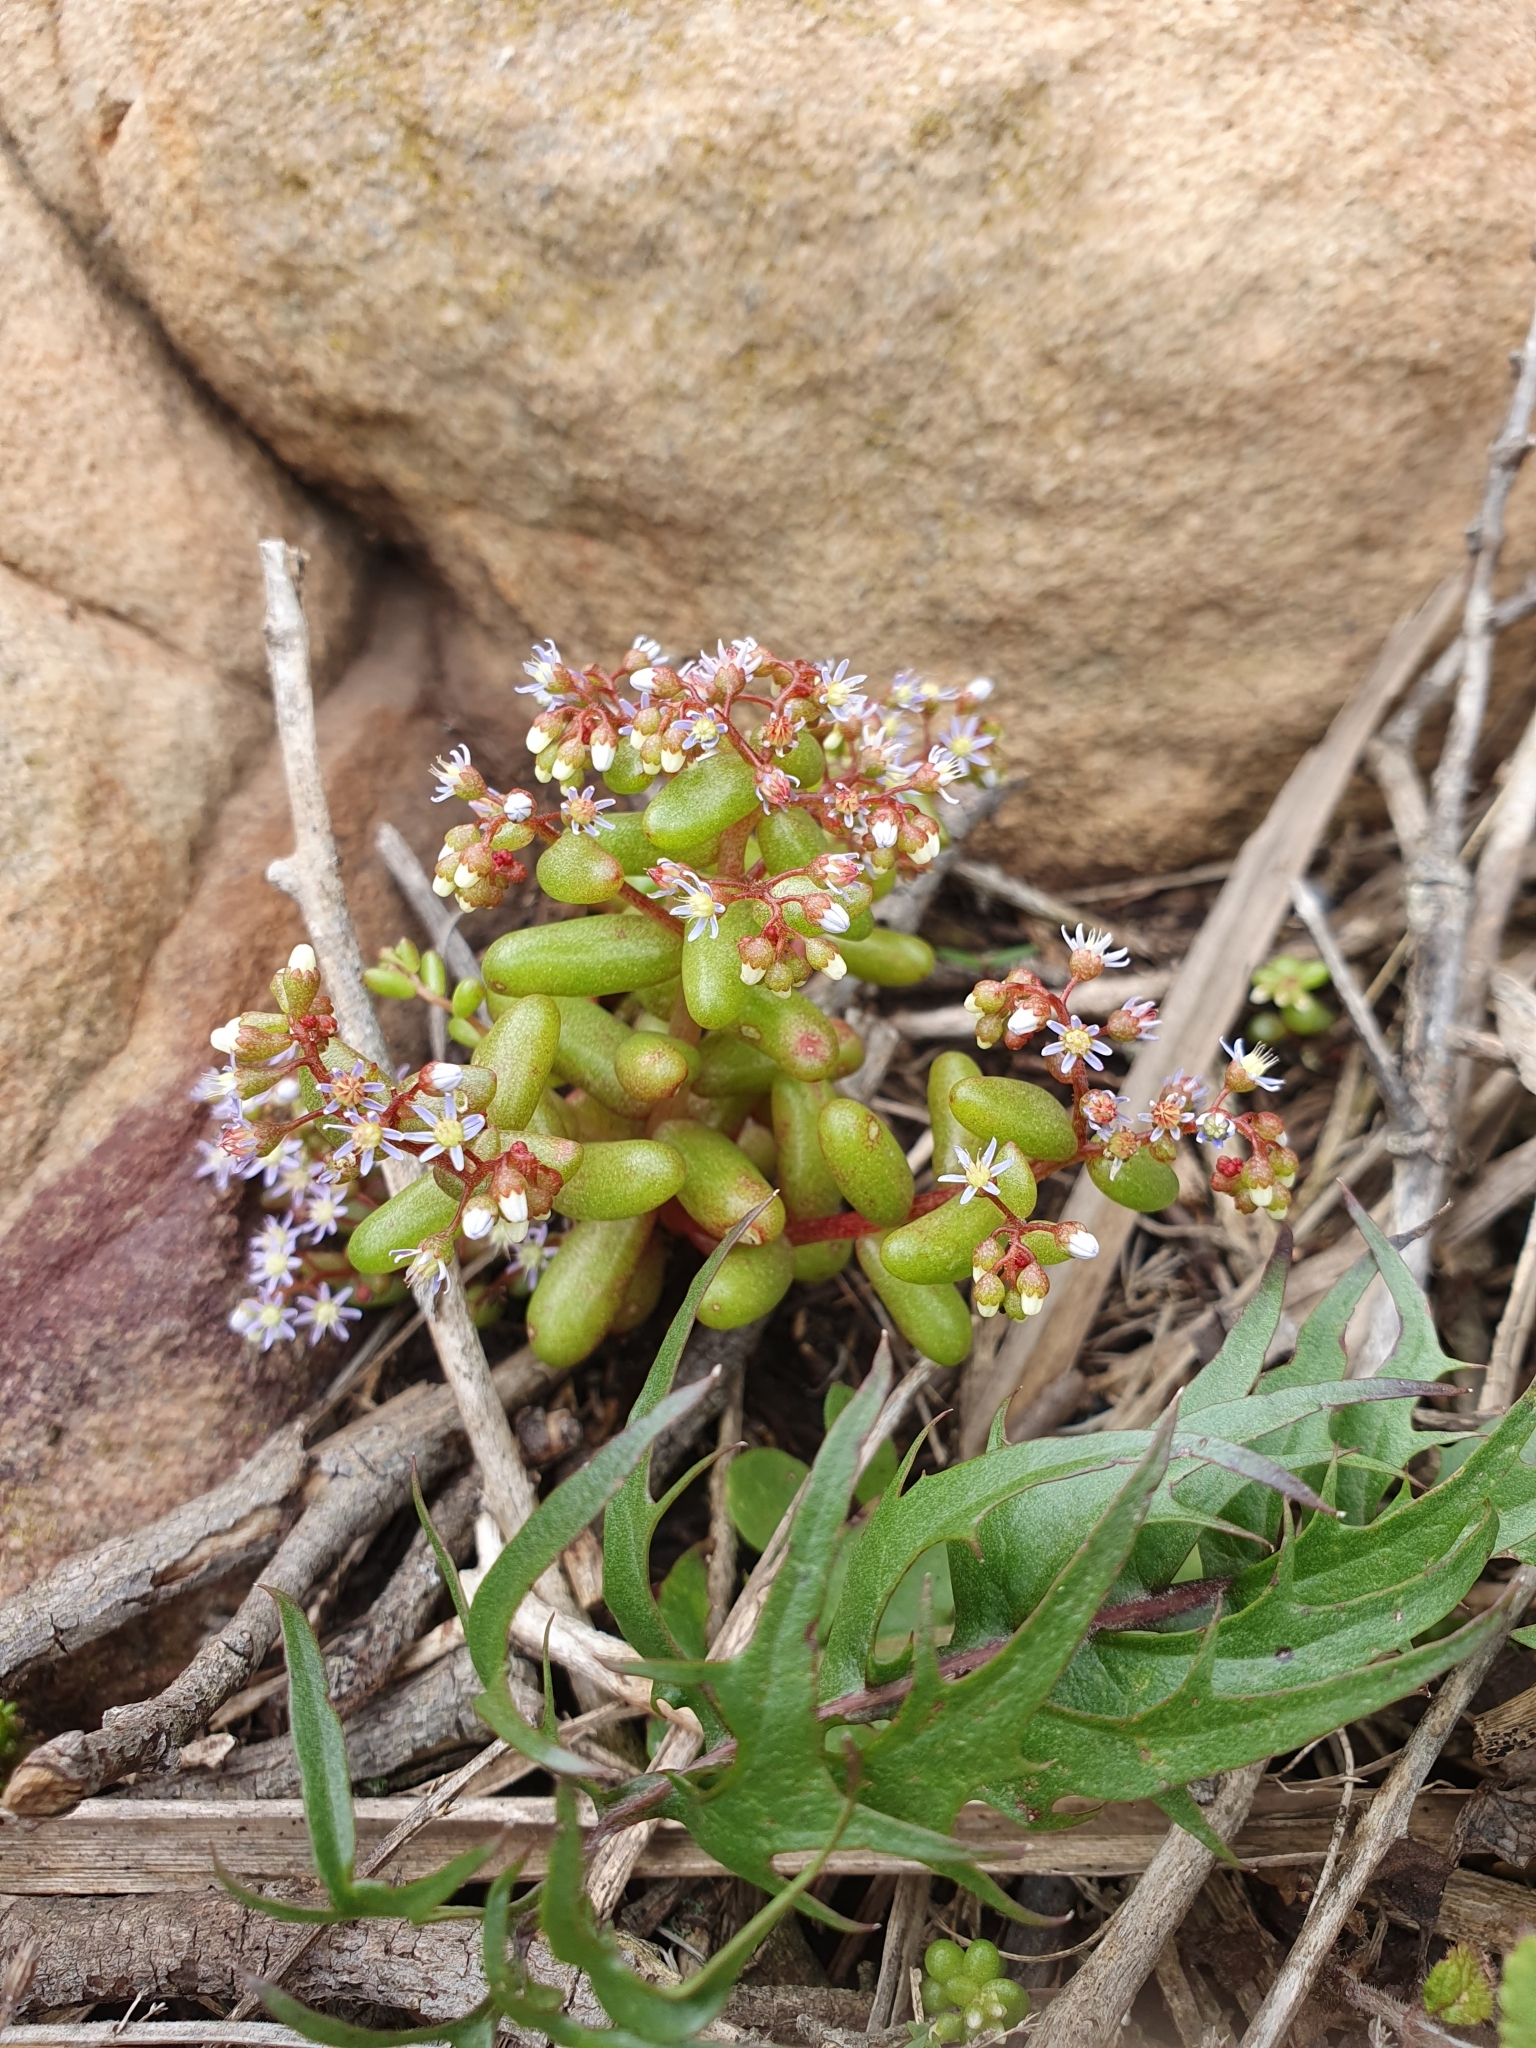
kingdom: Plantae
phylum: Tracheophyta
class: Magnoliopsida
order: Saxifragales
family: Crassulaceae
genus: Sedum
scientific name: Sedum caeruleum
